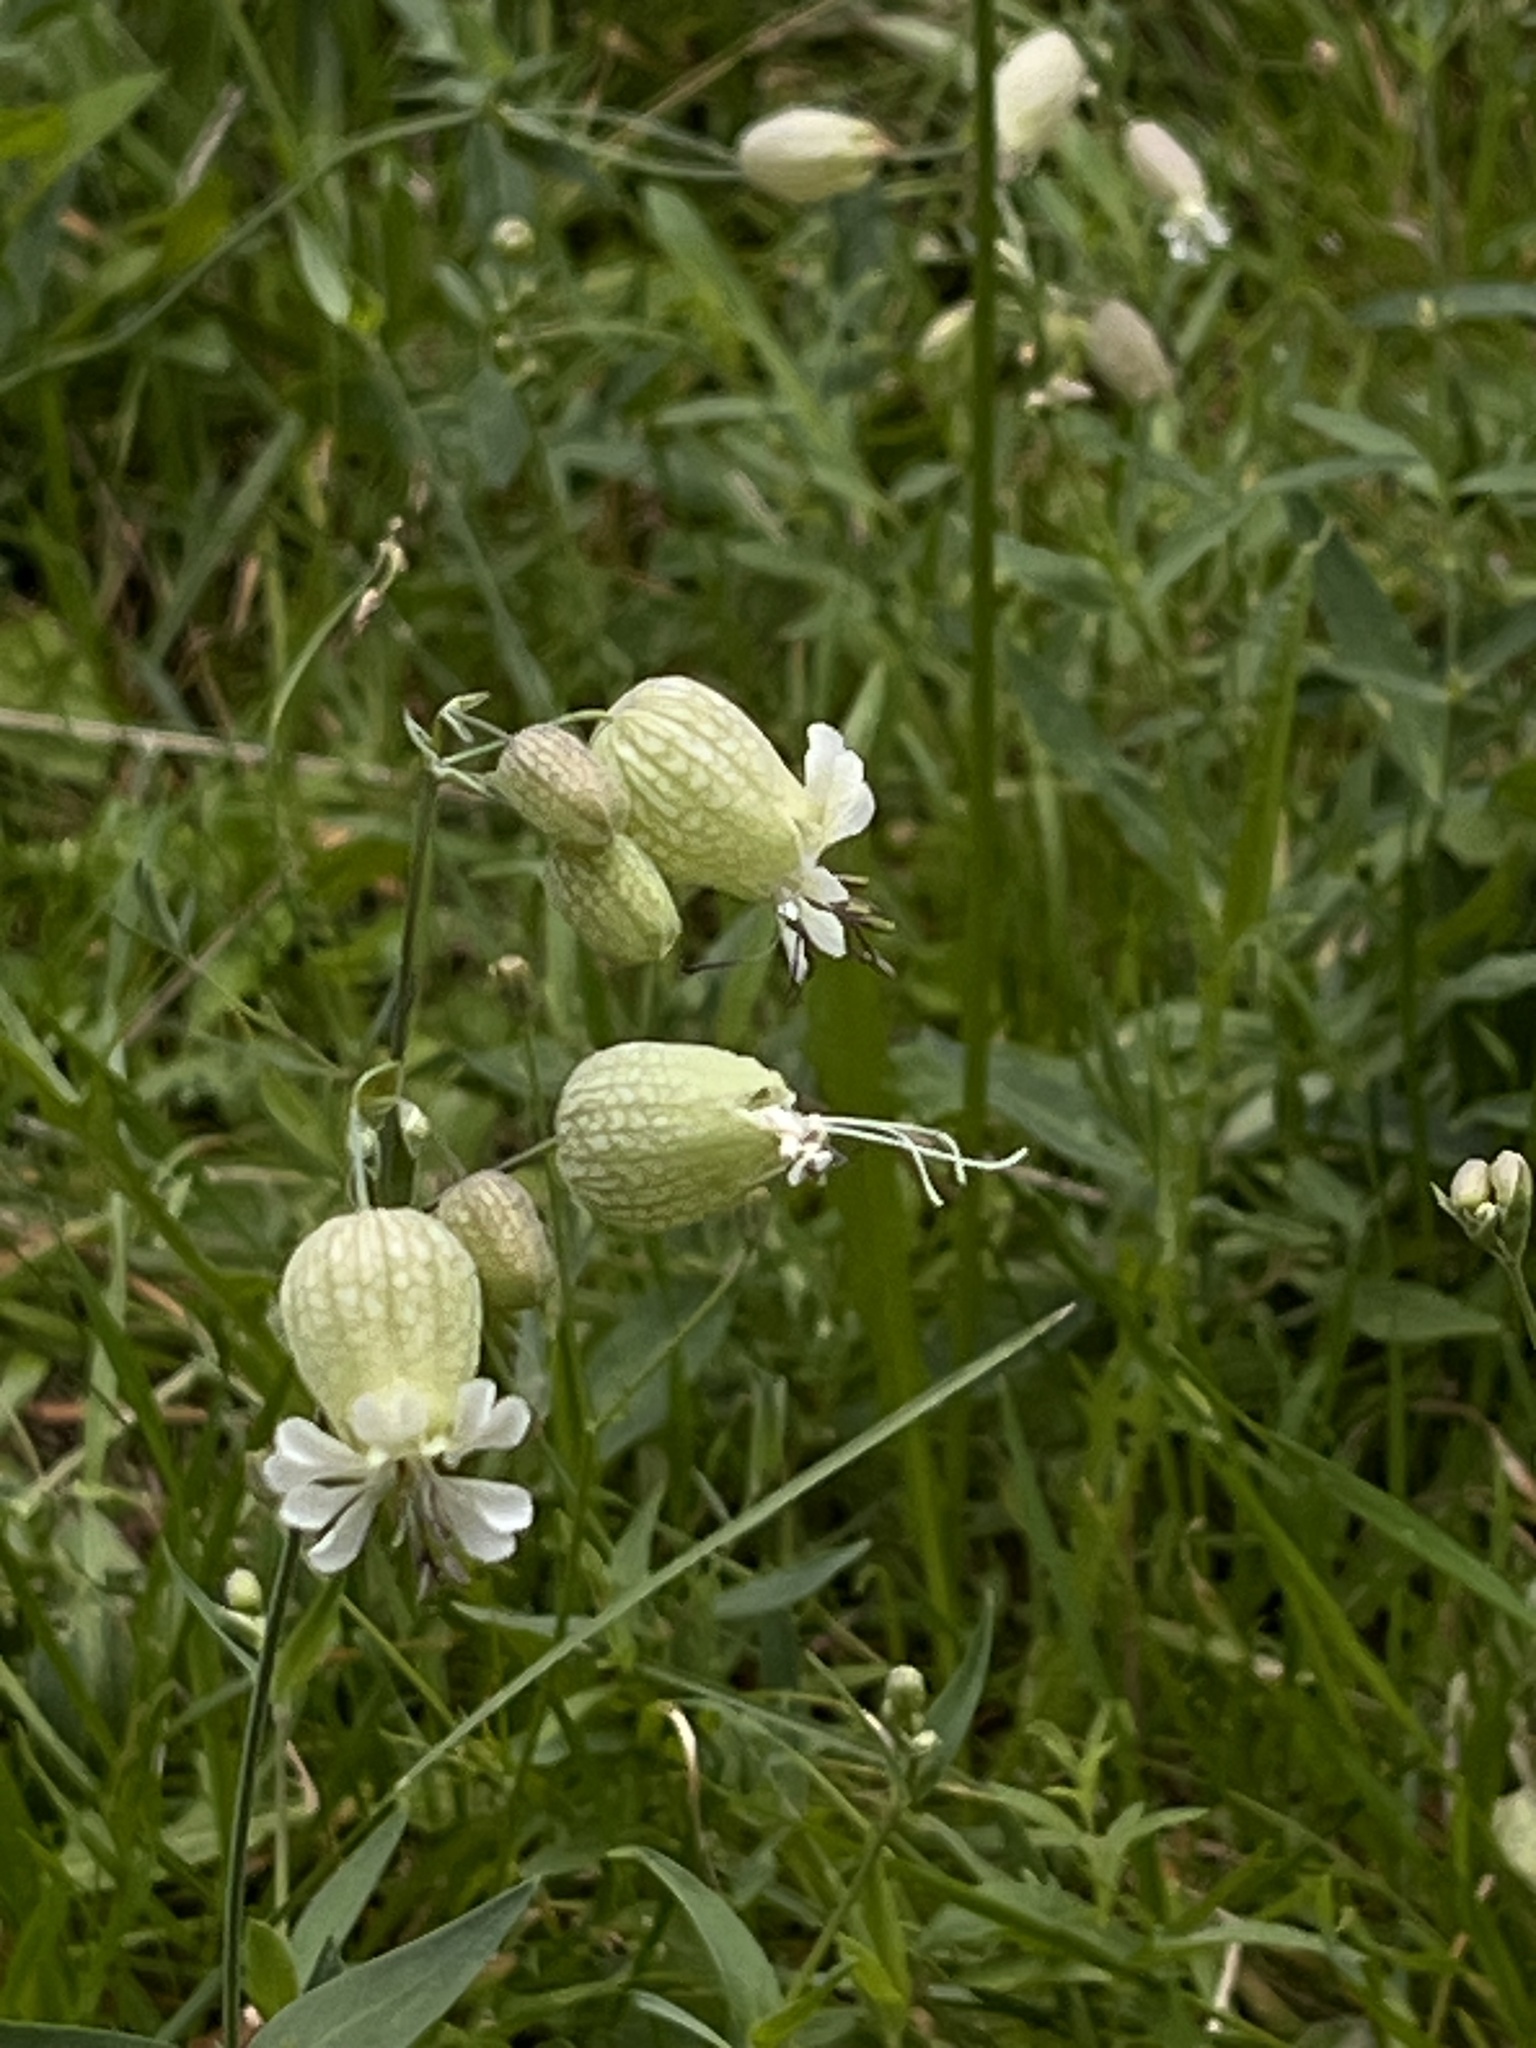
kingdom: Plantae
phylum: Tracheophyta
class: Magnoliopsida
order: Caryophyllales
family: Caryophyllaceae
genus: Silene
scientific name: Silene vulgaris
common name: Bladder campion
